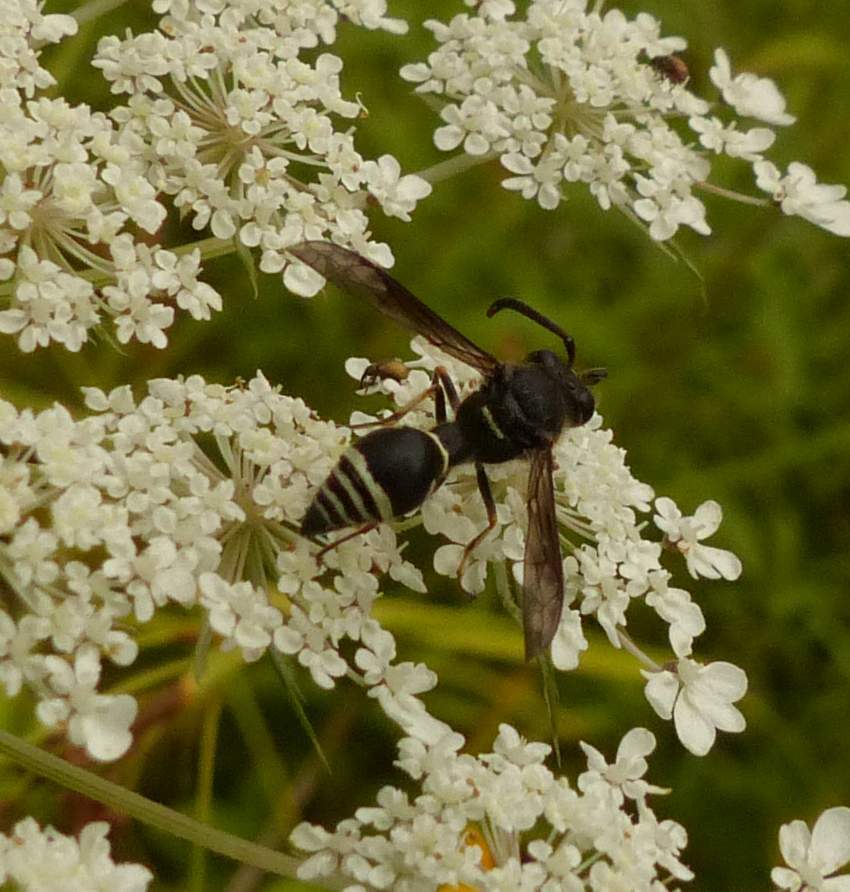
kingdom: Animalia
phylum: Arthropoda
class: Insecta
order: Hymenoptera
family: Vespidae
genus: Eumenes
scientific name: Eumenes crucifera
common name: Cross potter wasp
